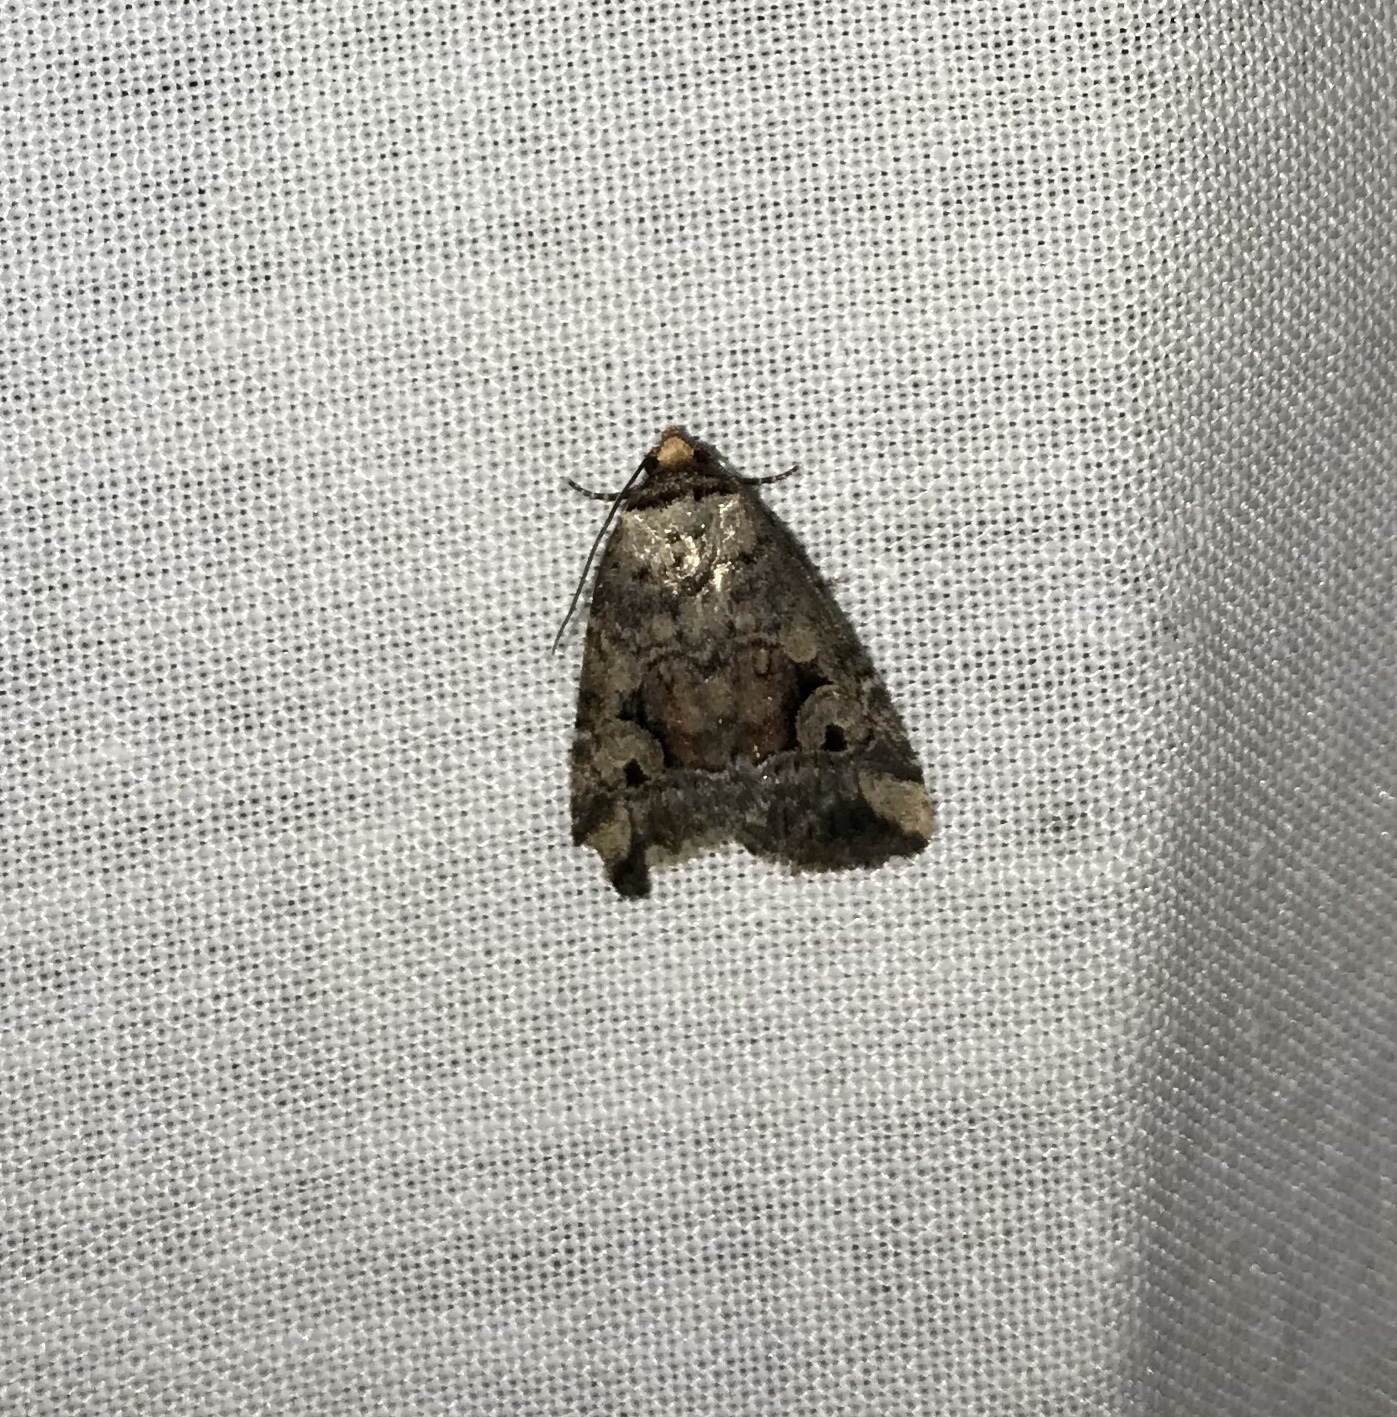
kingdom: Animalia
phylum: Arthropoda
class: Insecta
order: Lepidoptera
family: Noctuidae
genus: Elaphria
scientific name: Elaphria alapallida
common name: Pale-winged midget
